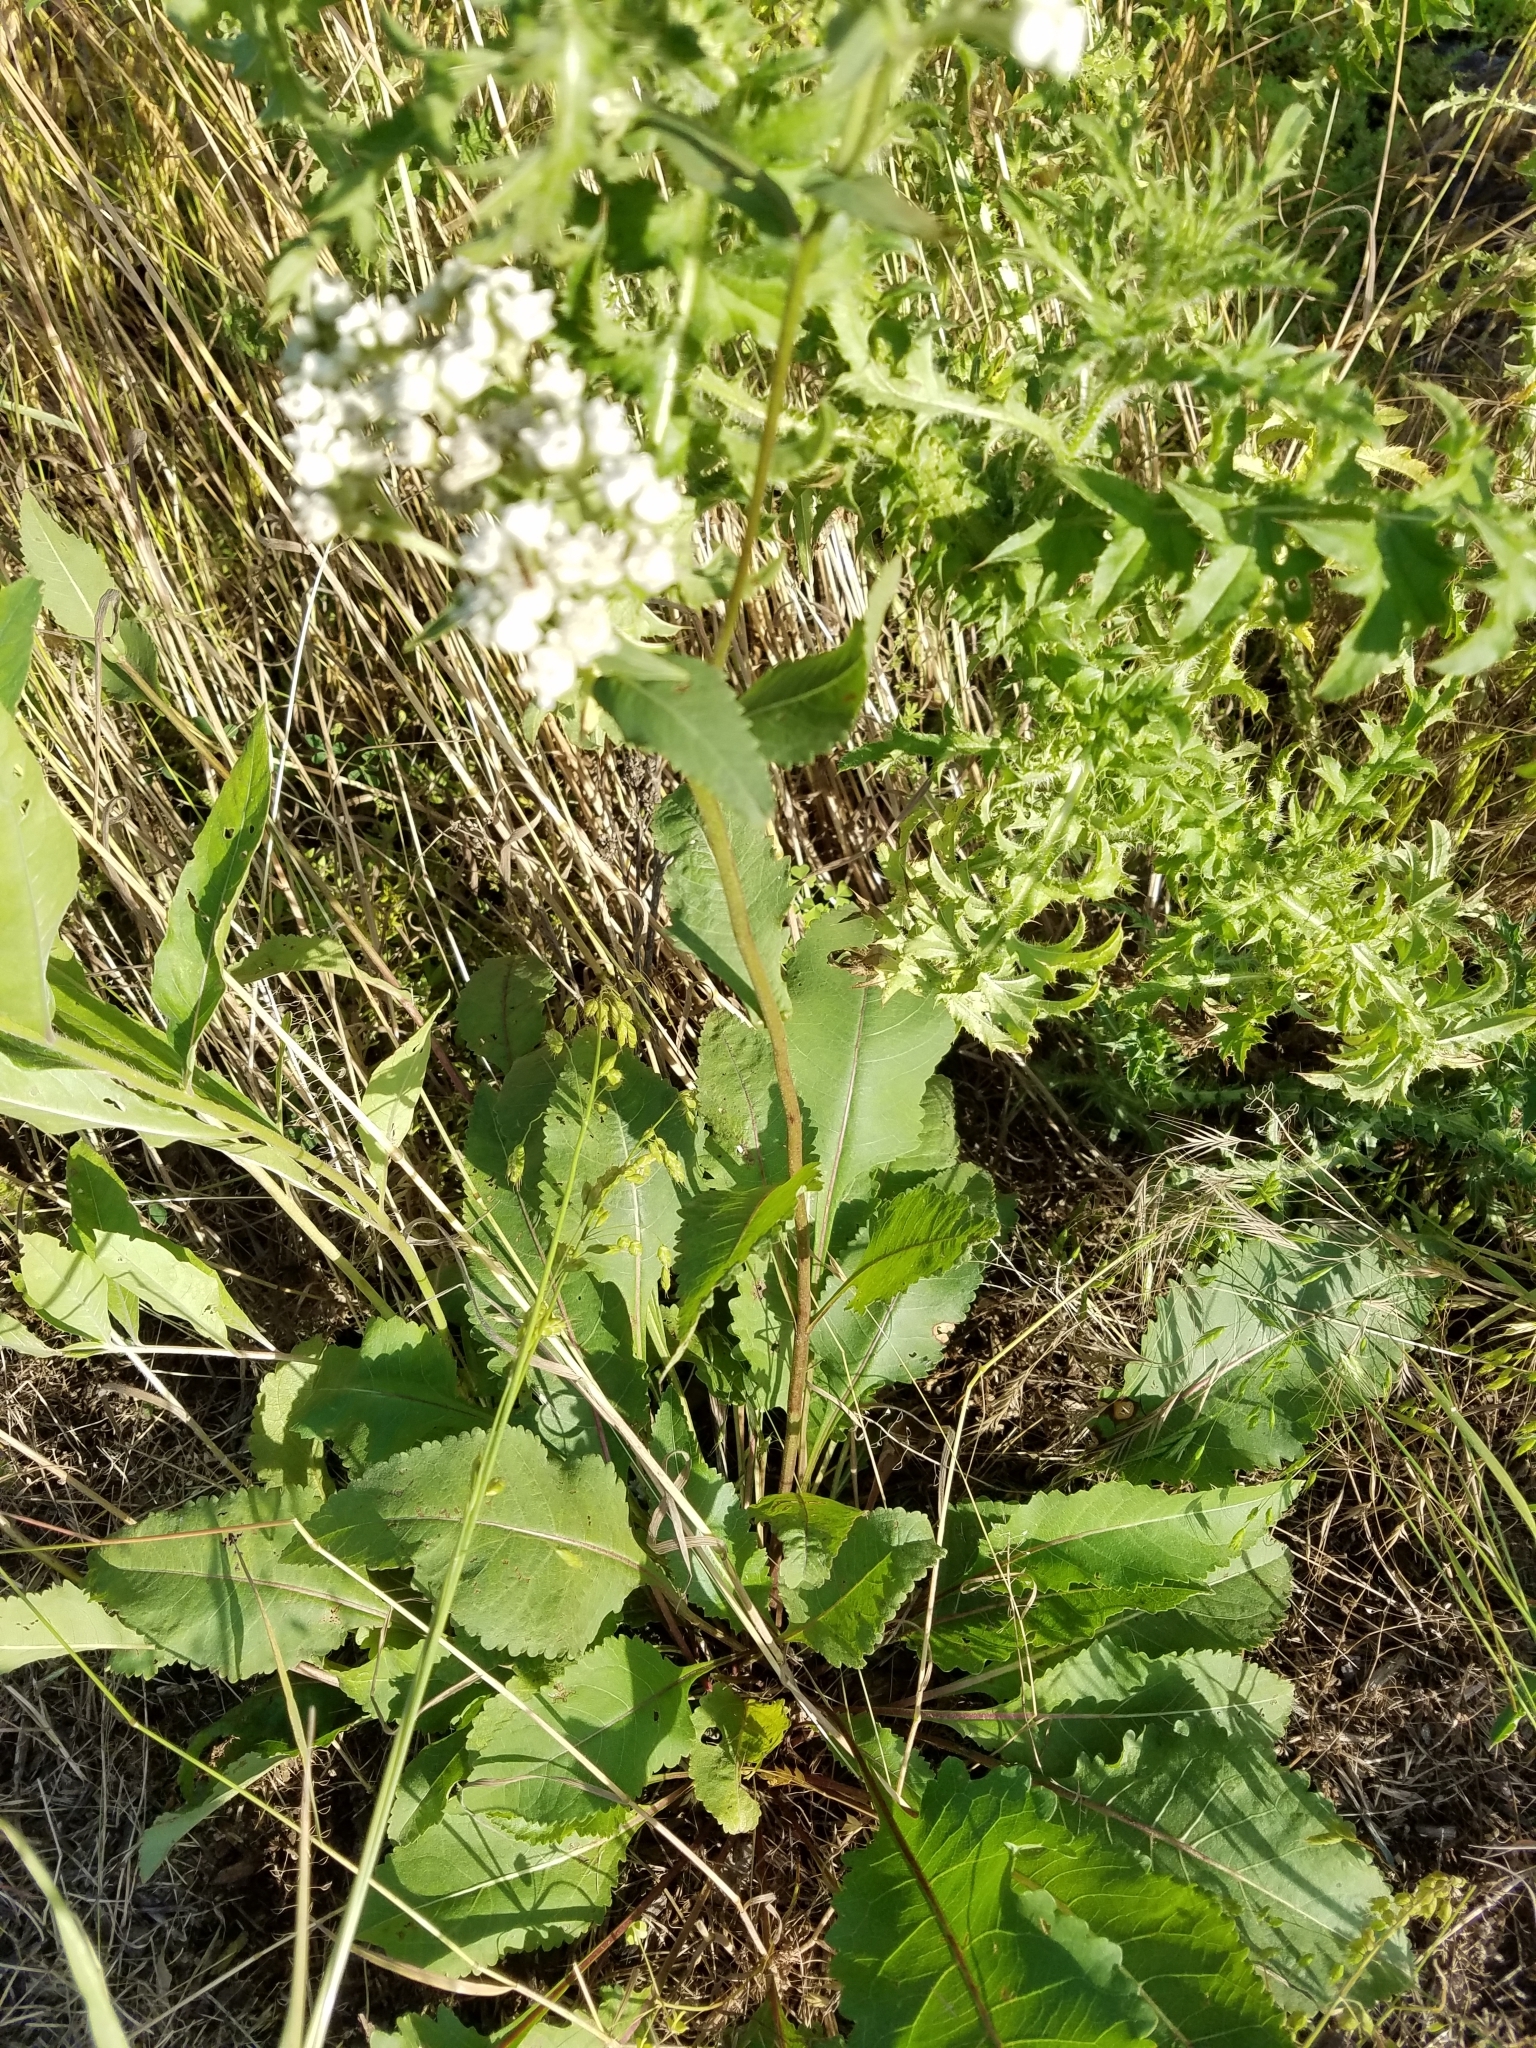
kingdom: Plantae
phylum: Tracheophyta
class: Magnoliopsida
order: Asterales
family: Asteraceae
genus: Parthenium
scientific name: Parthenium integrifolium
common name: American feverfew
